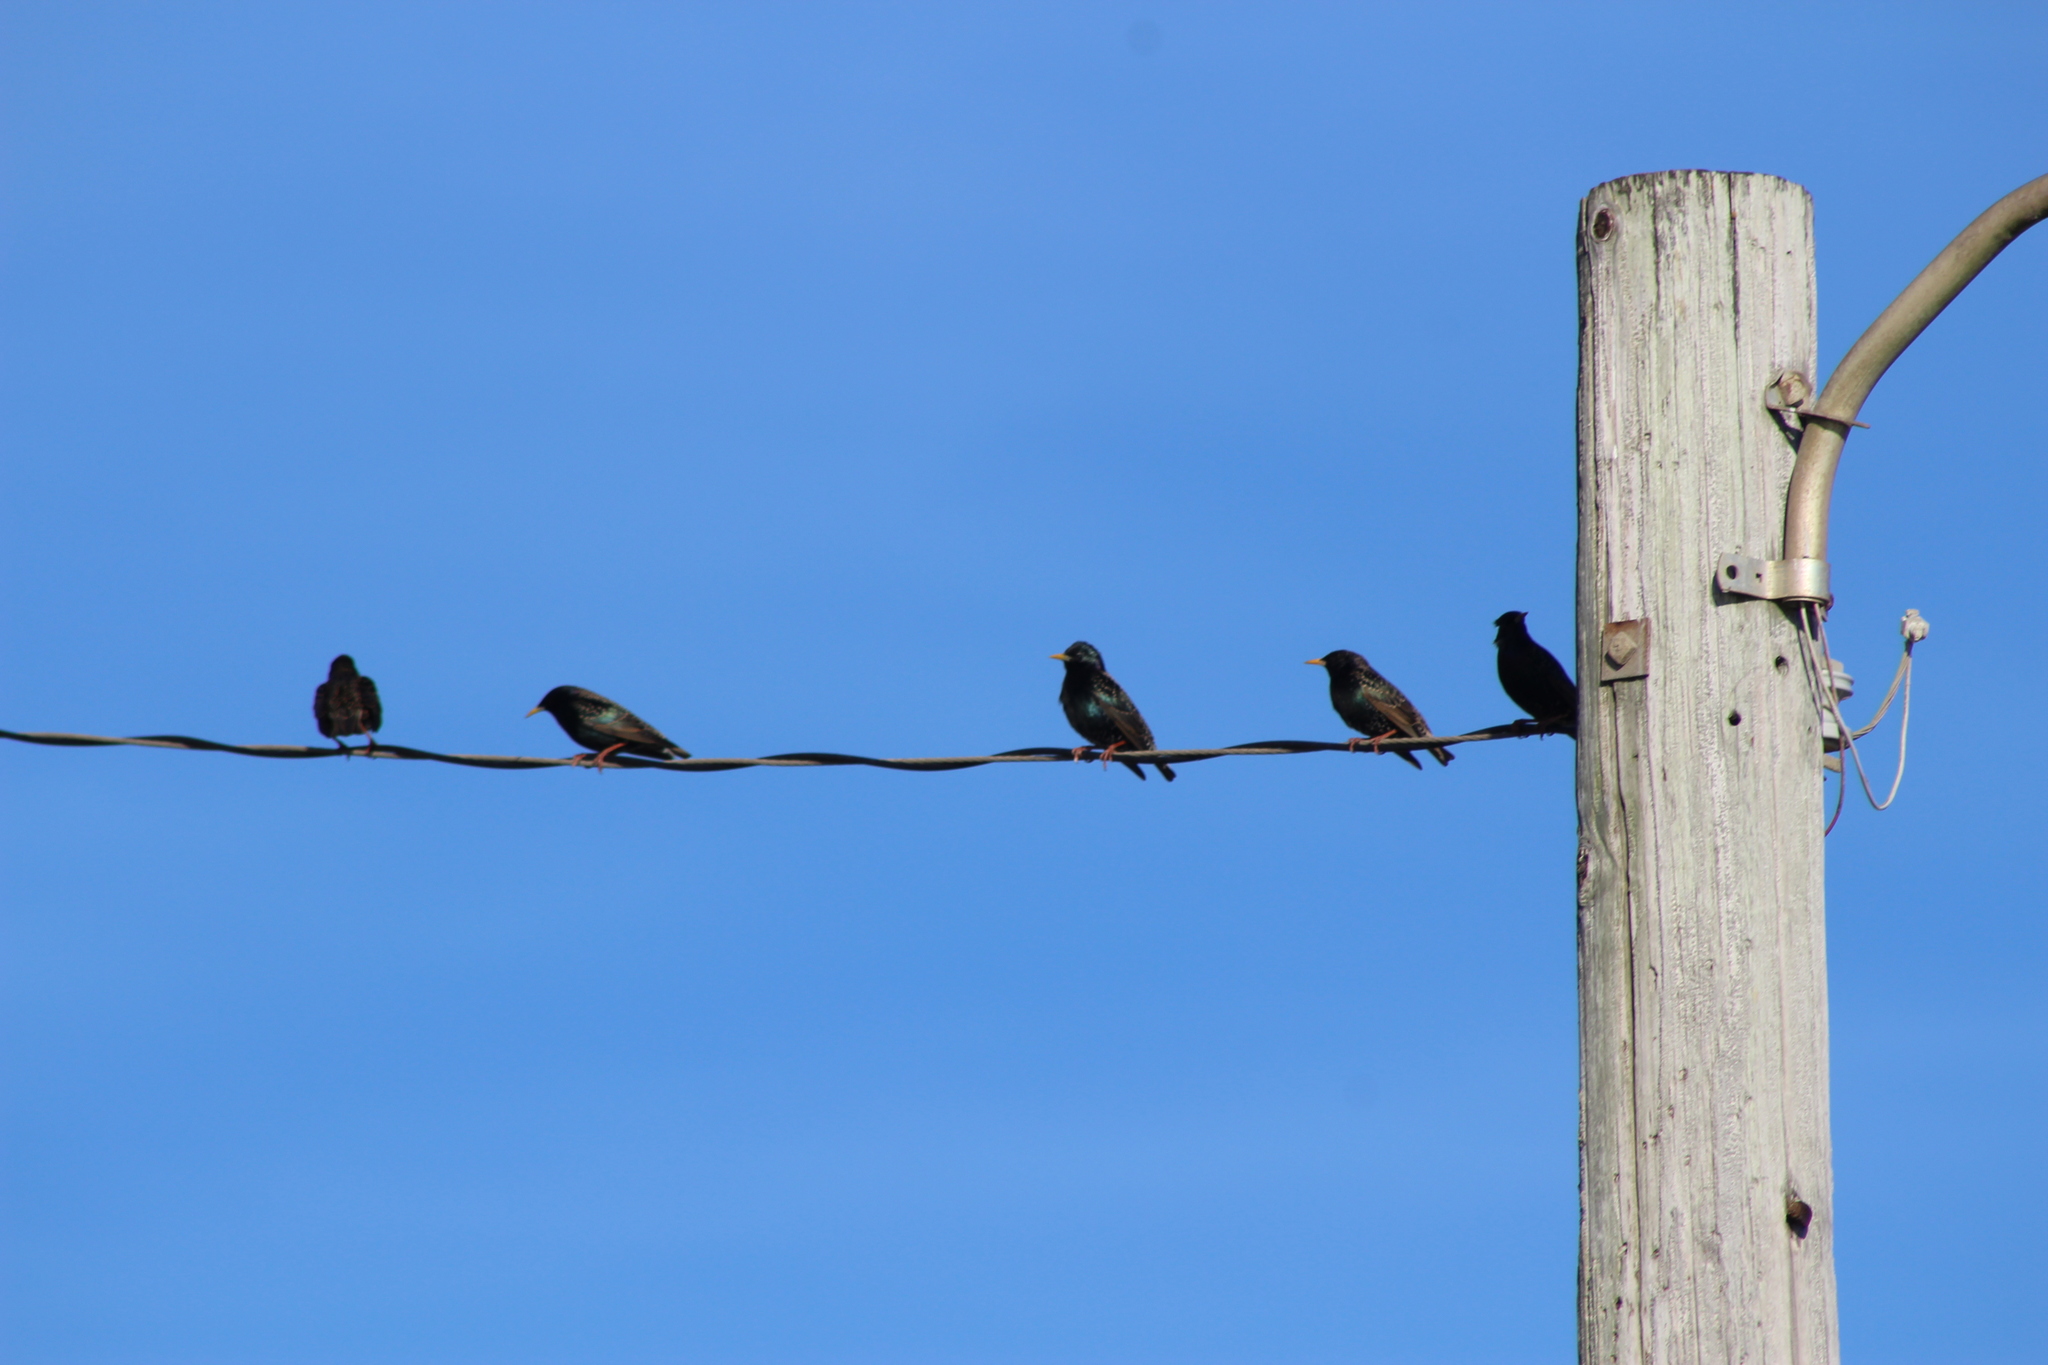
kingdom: Animalia
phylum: Chordata
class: Aves
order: Passeriformes
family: Sturnidae
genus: Sturnus
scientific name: Sturnus vulgaris
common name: Common starling
